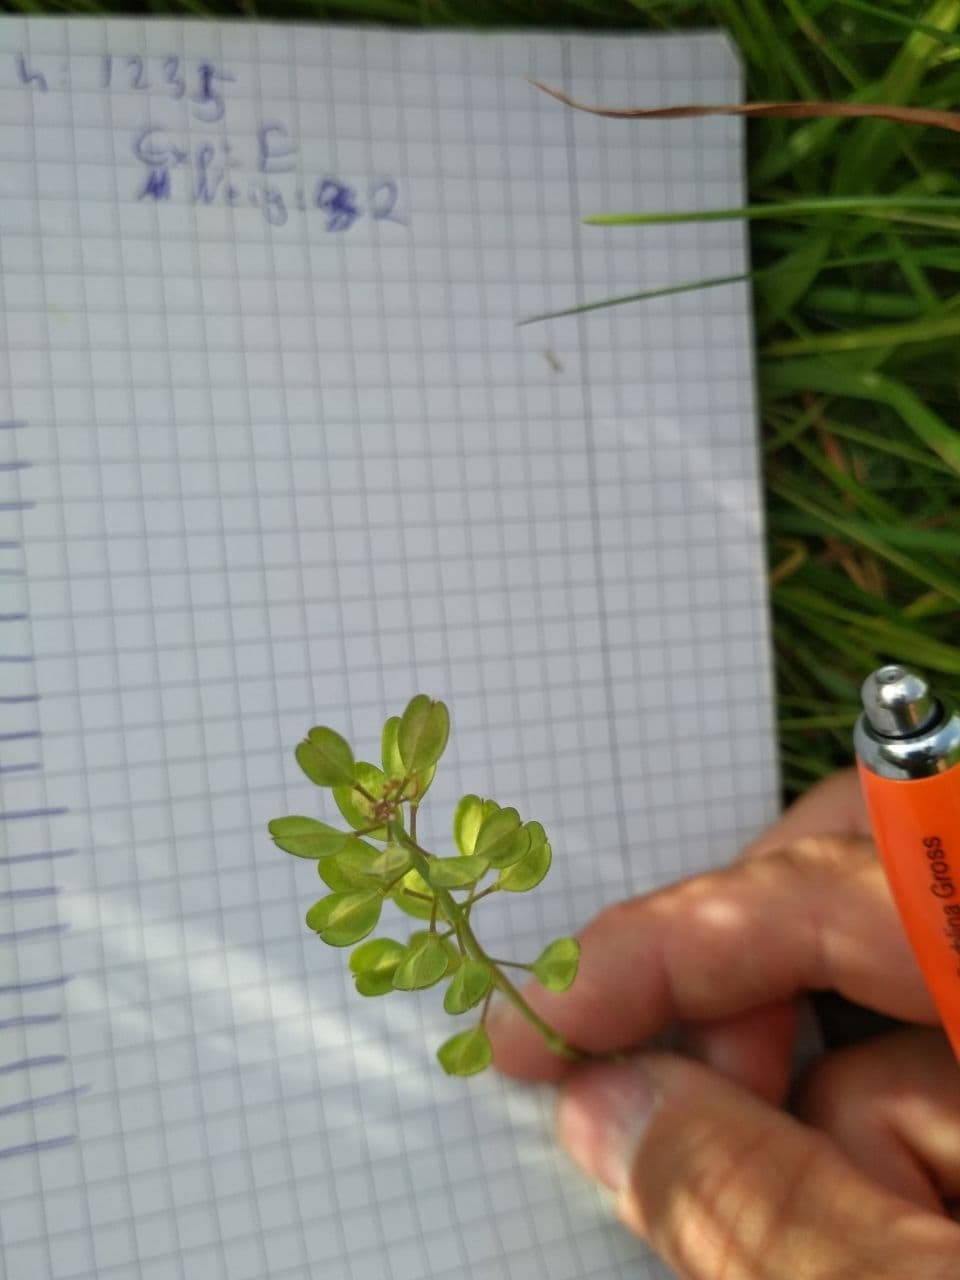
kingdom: Plantae
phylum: Tracheophyta
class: Magnoliopsida
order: Brassicales
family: Brassicaceae
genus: Thlaspi
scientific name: Thlaspi arvense
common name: Field pennycress
